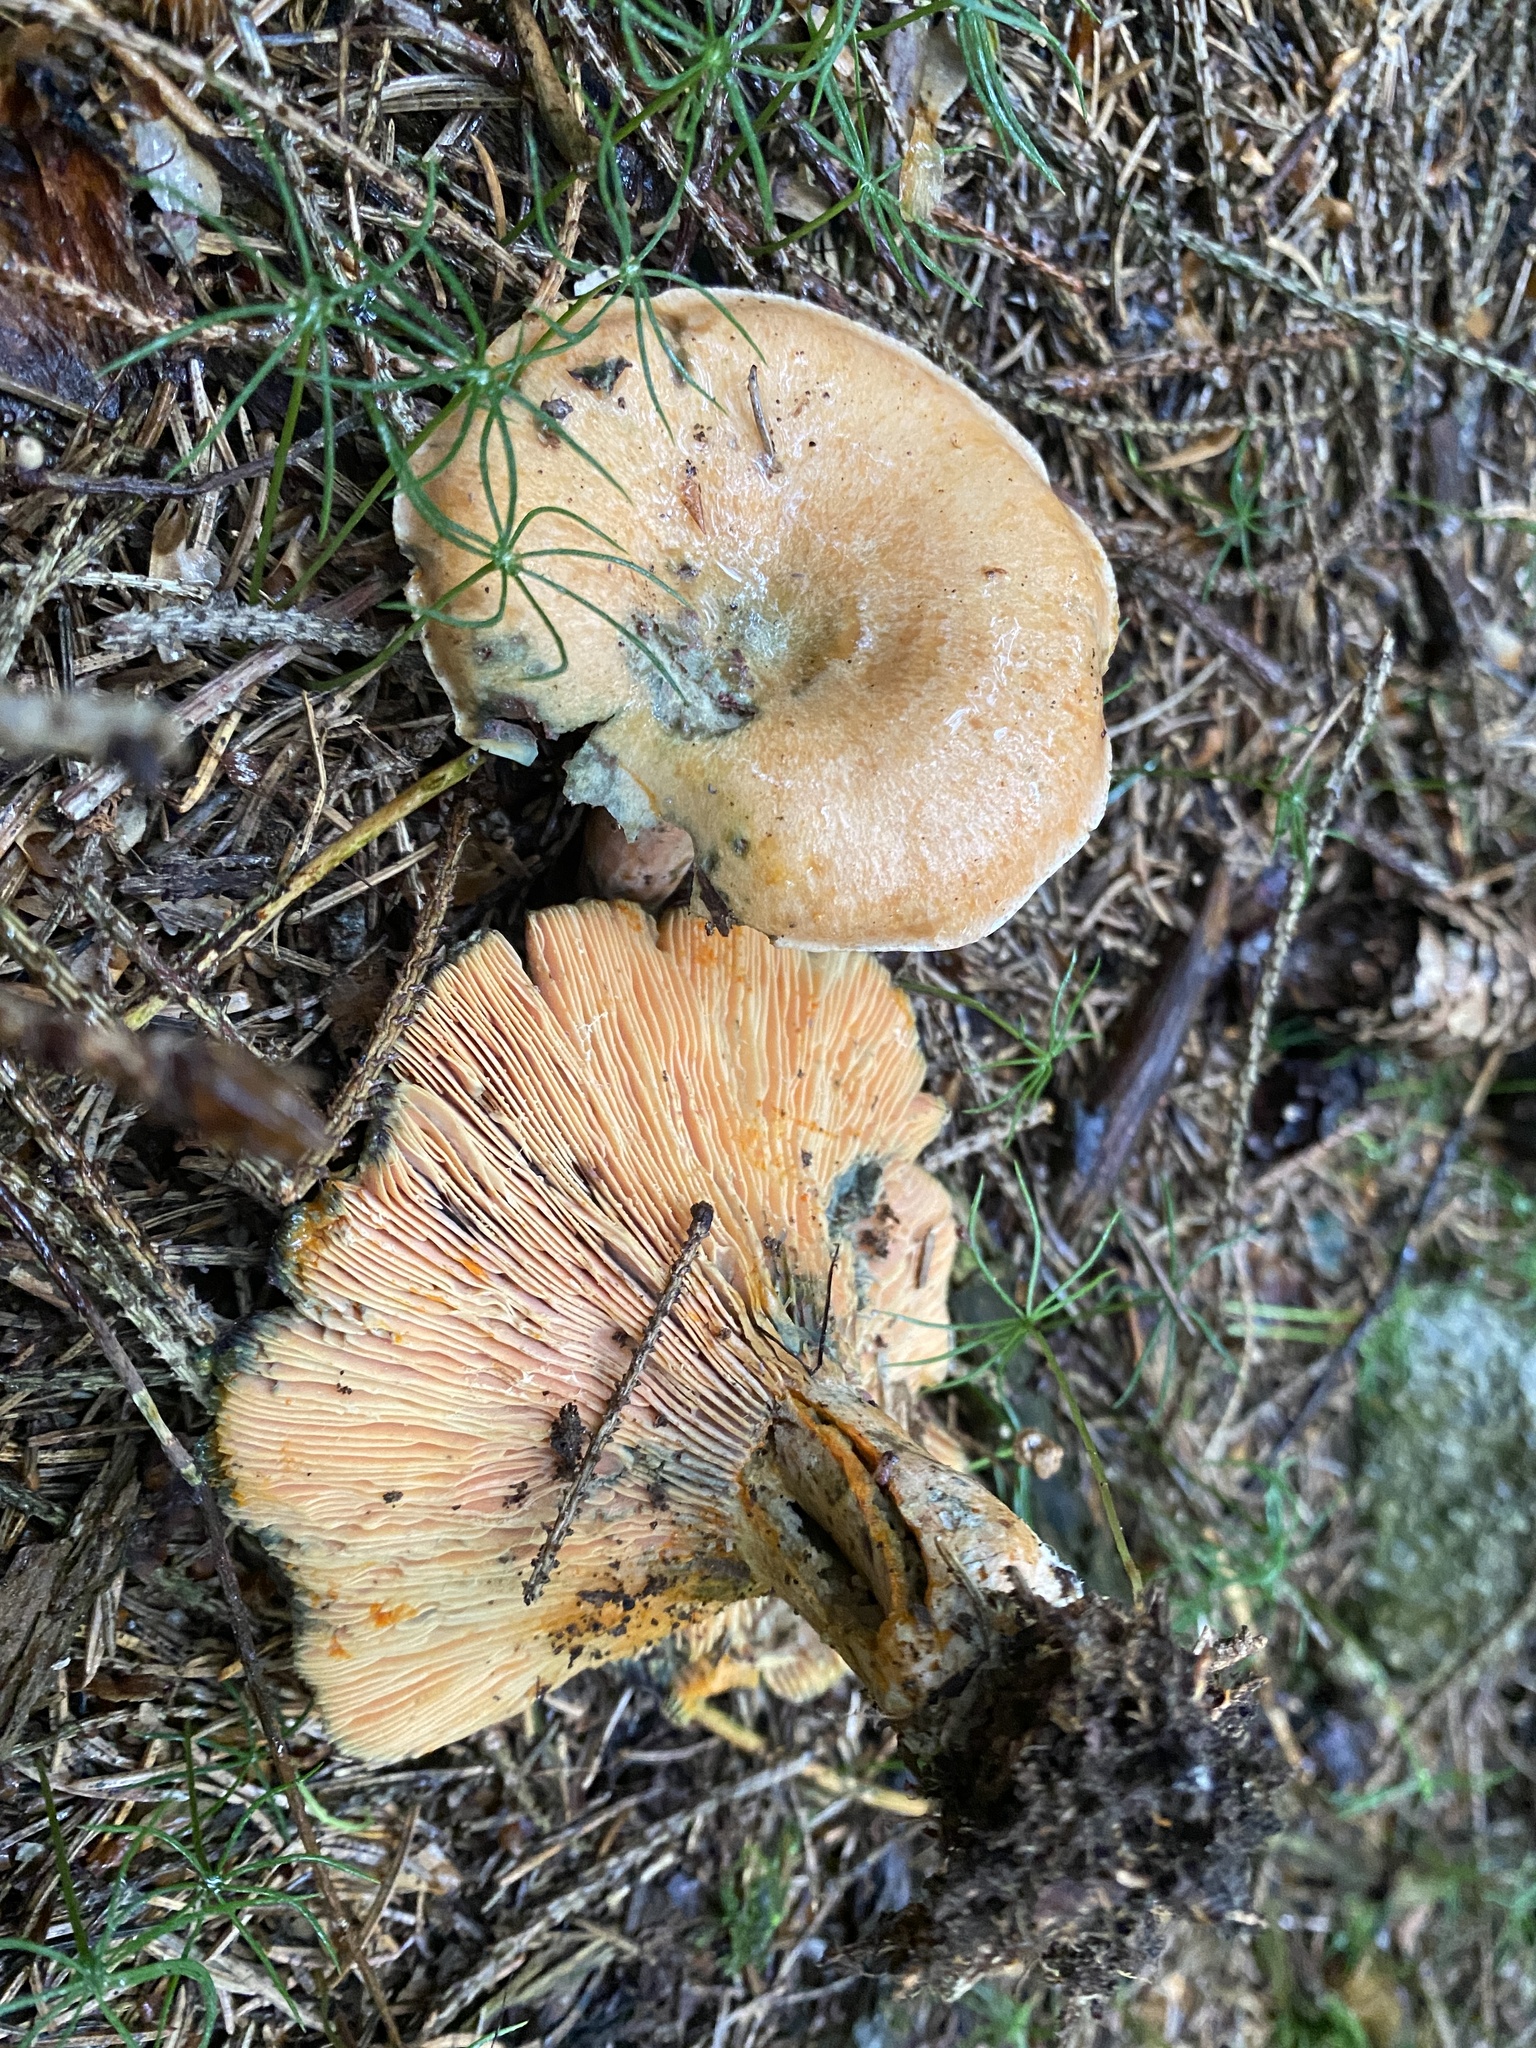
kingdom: Fungi
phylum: Basidiomycota
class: Agaricomycetes
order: Russulales
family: Russulaceae
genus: Lactarius
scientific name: Lactarius deterrimus
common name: False saffron milkcap
